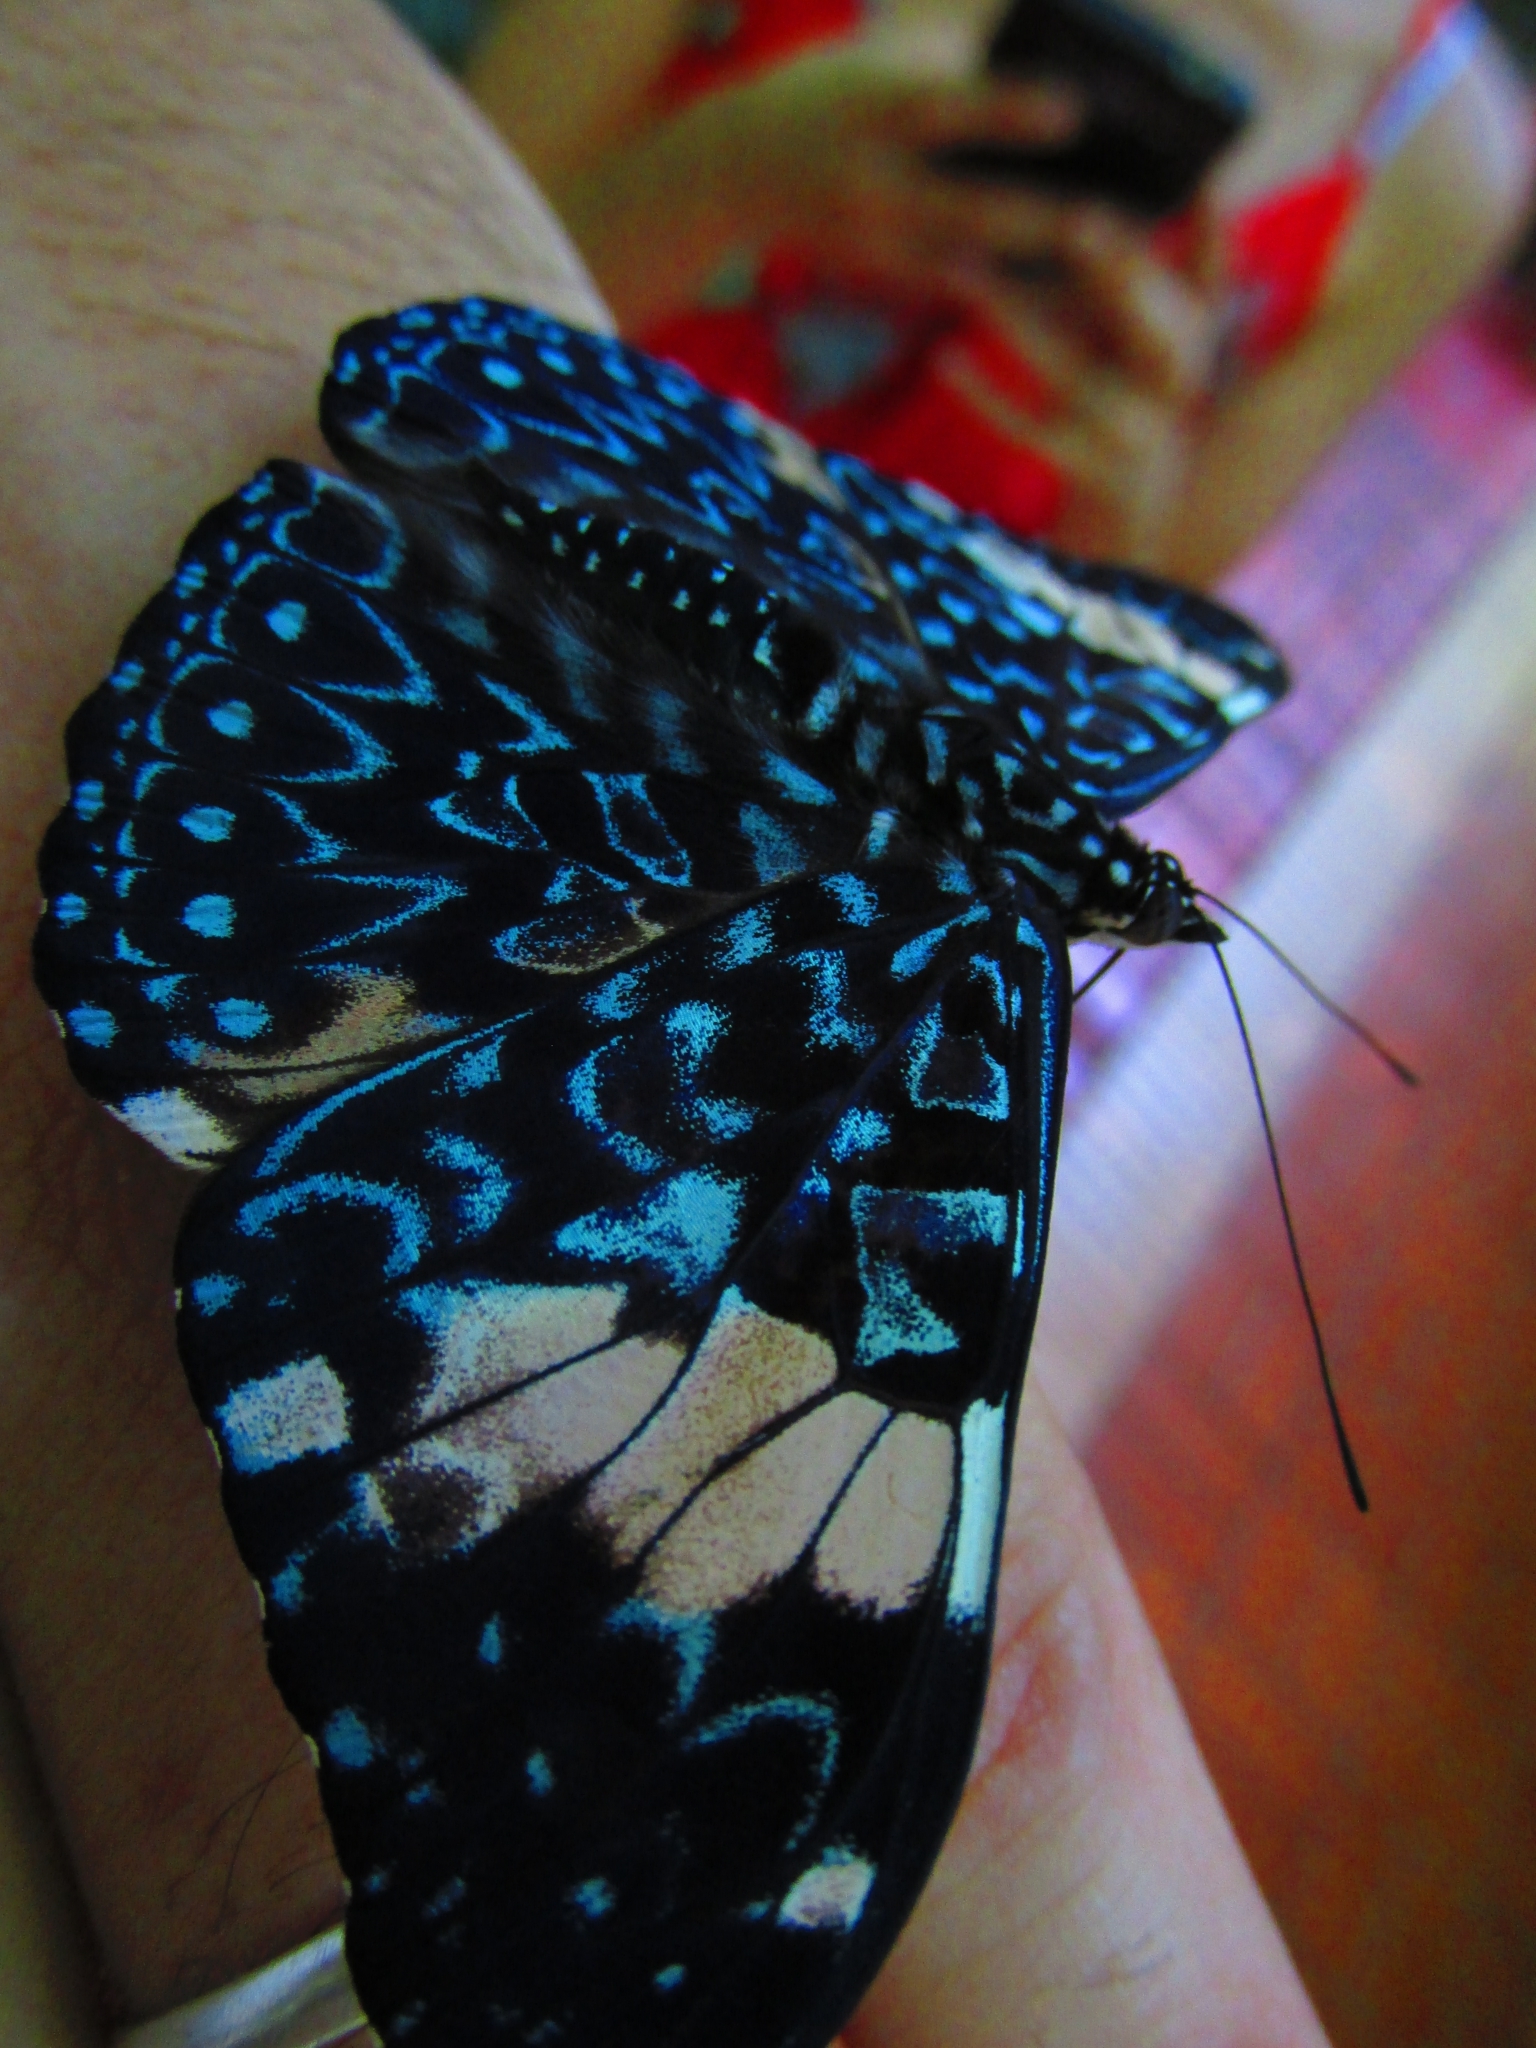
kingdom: Animalia
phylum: Arthropoda
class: Insecta
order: Lepidoptera
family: Nymphalidae
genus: Hamadryas
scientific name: Hamadryas amphinome
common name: Red cracker
